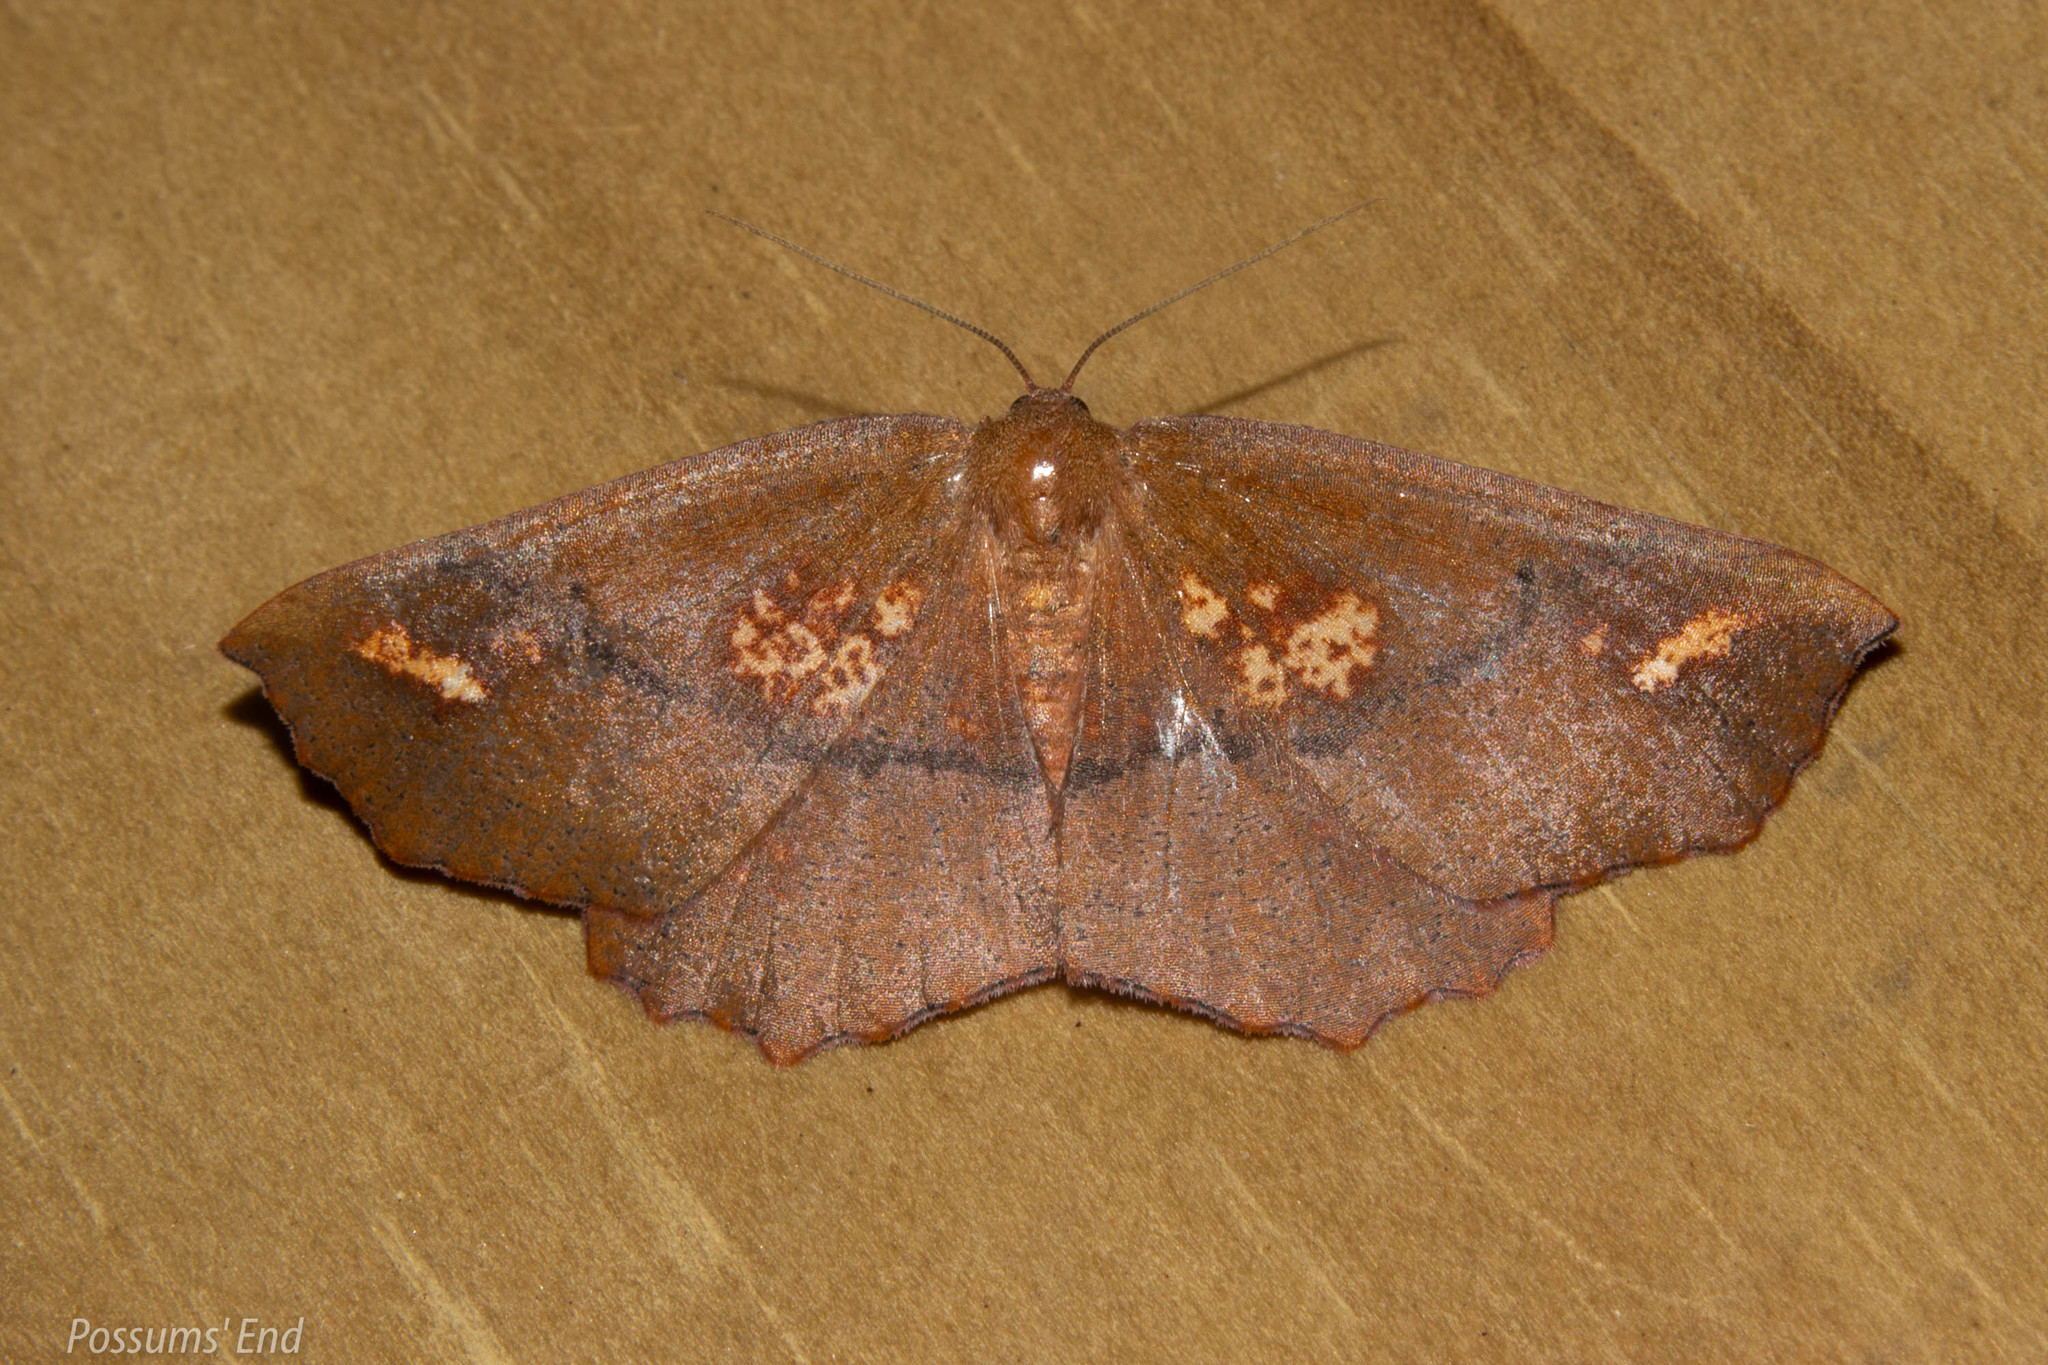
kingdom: Animalia
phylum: Arthropoda
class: Insecta
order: Lepidoptera
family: Geometridae
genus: Xyridacma
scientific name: Xyridacma ustaria
